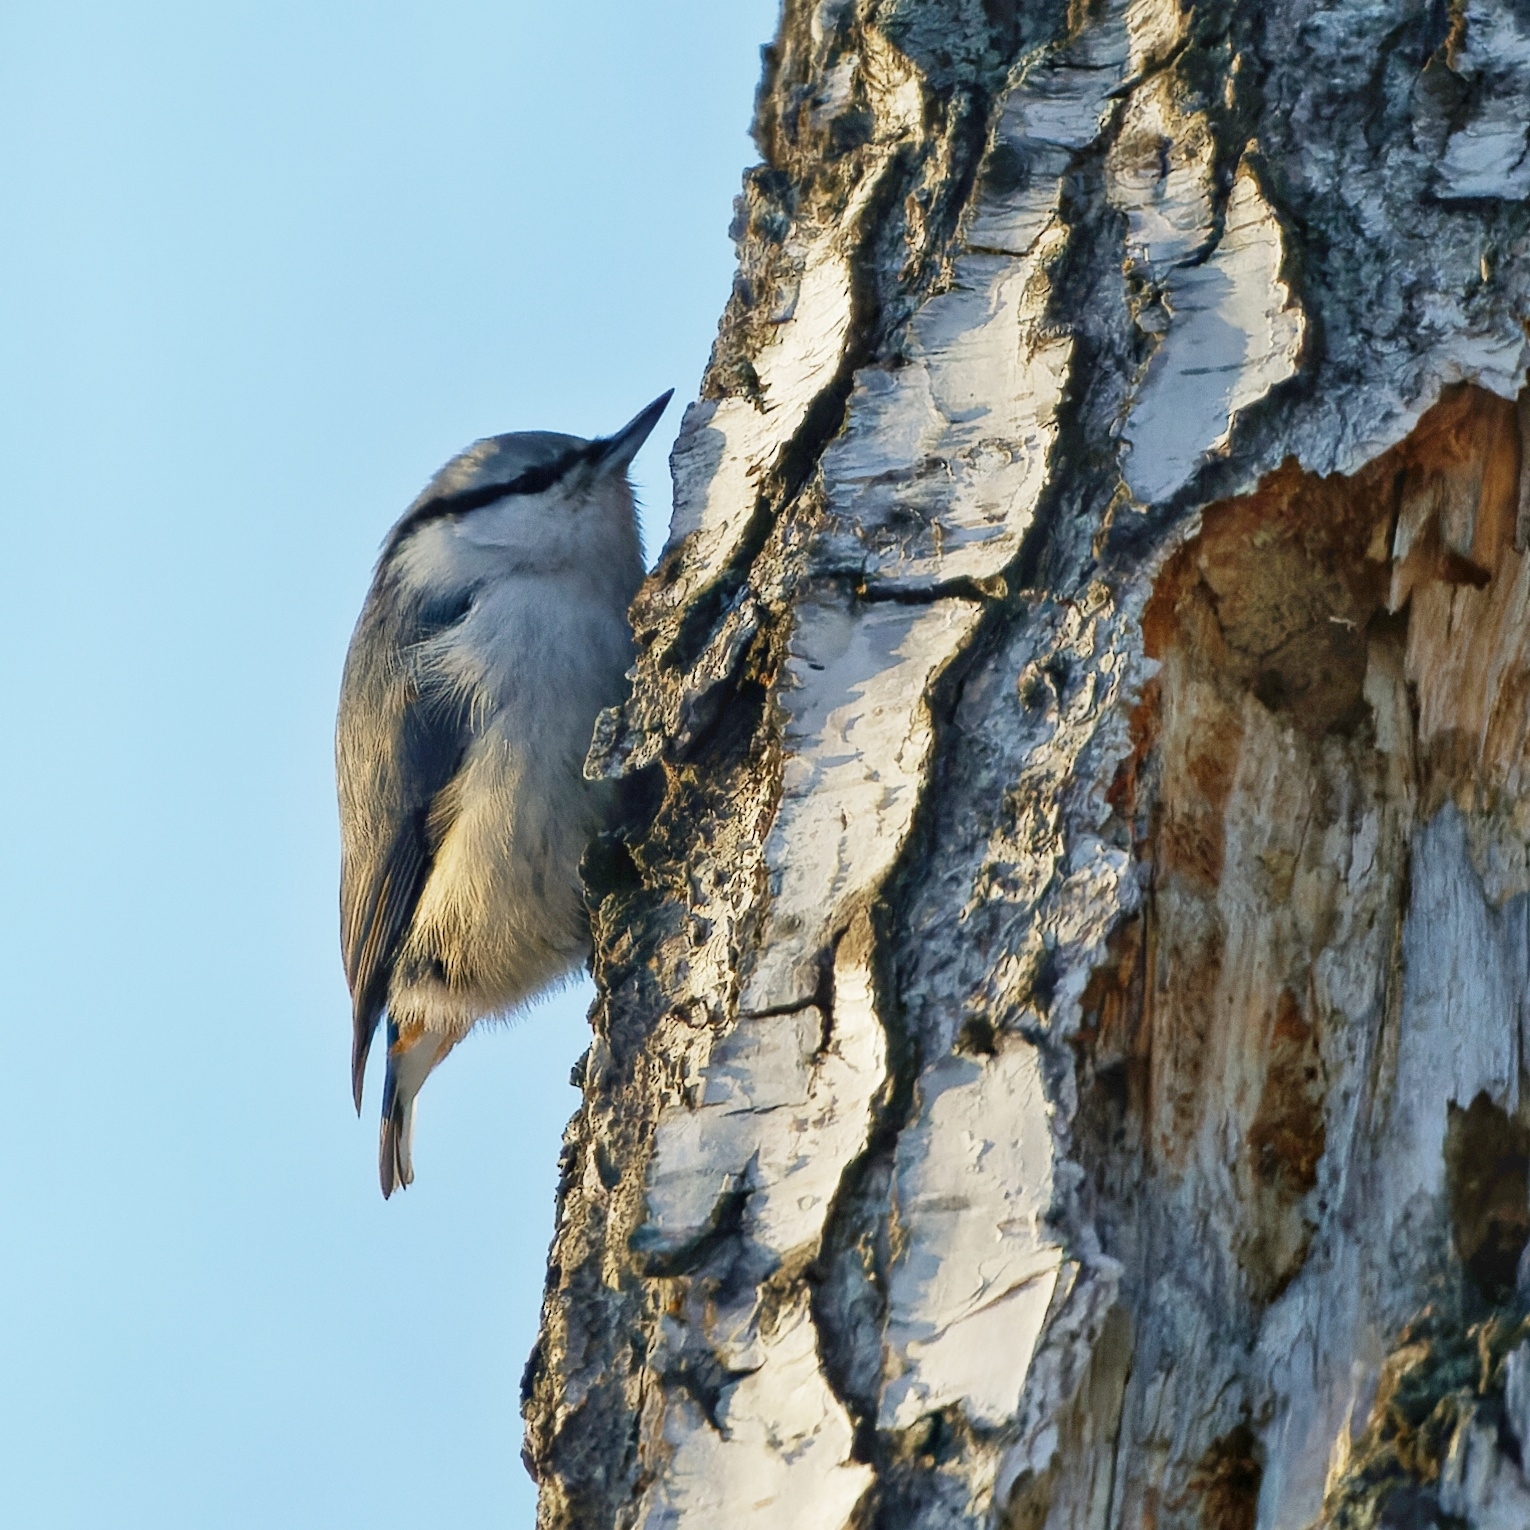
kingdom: Animalia
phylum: Chordata
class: Aves
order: Passeriformes
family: Sittidae
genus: Sitta
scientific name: Sitta europaea
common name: Eurasian nuthatch
